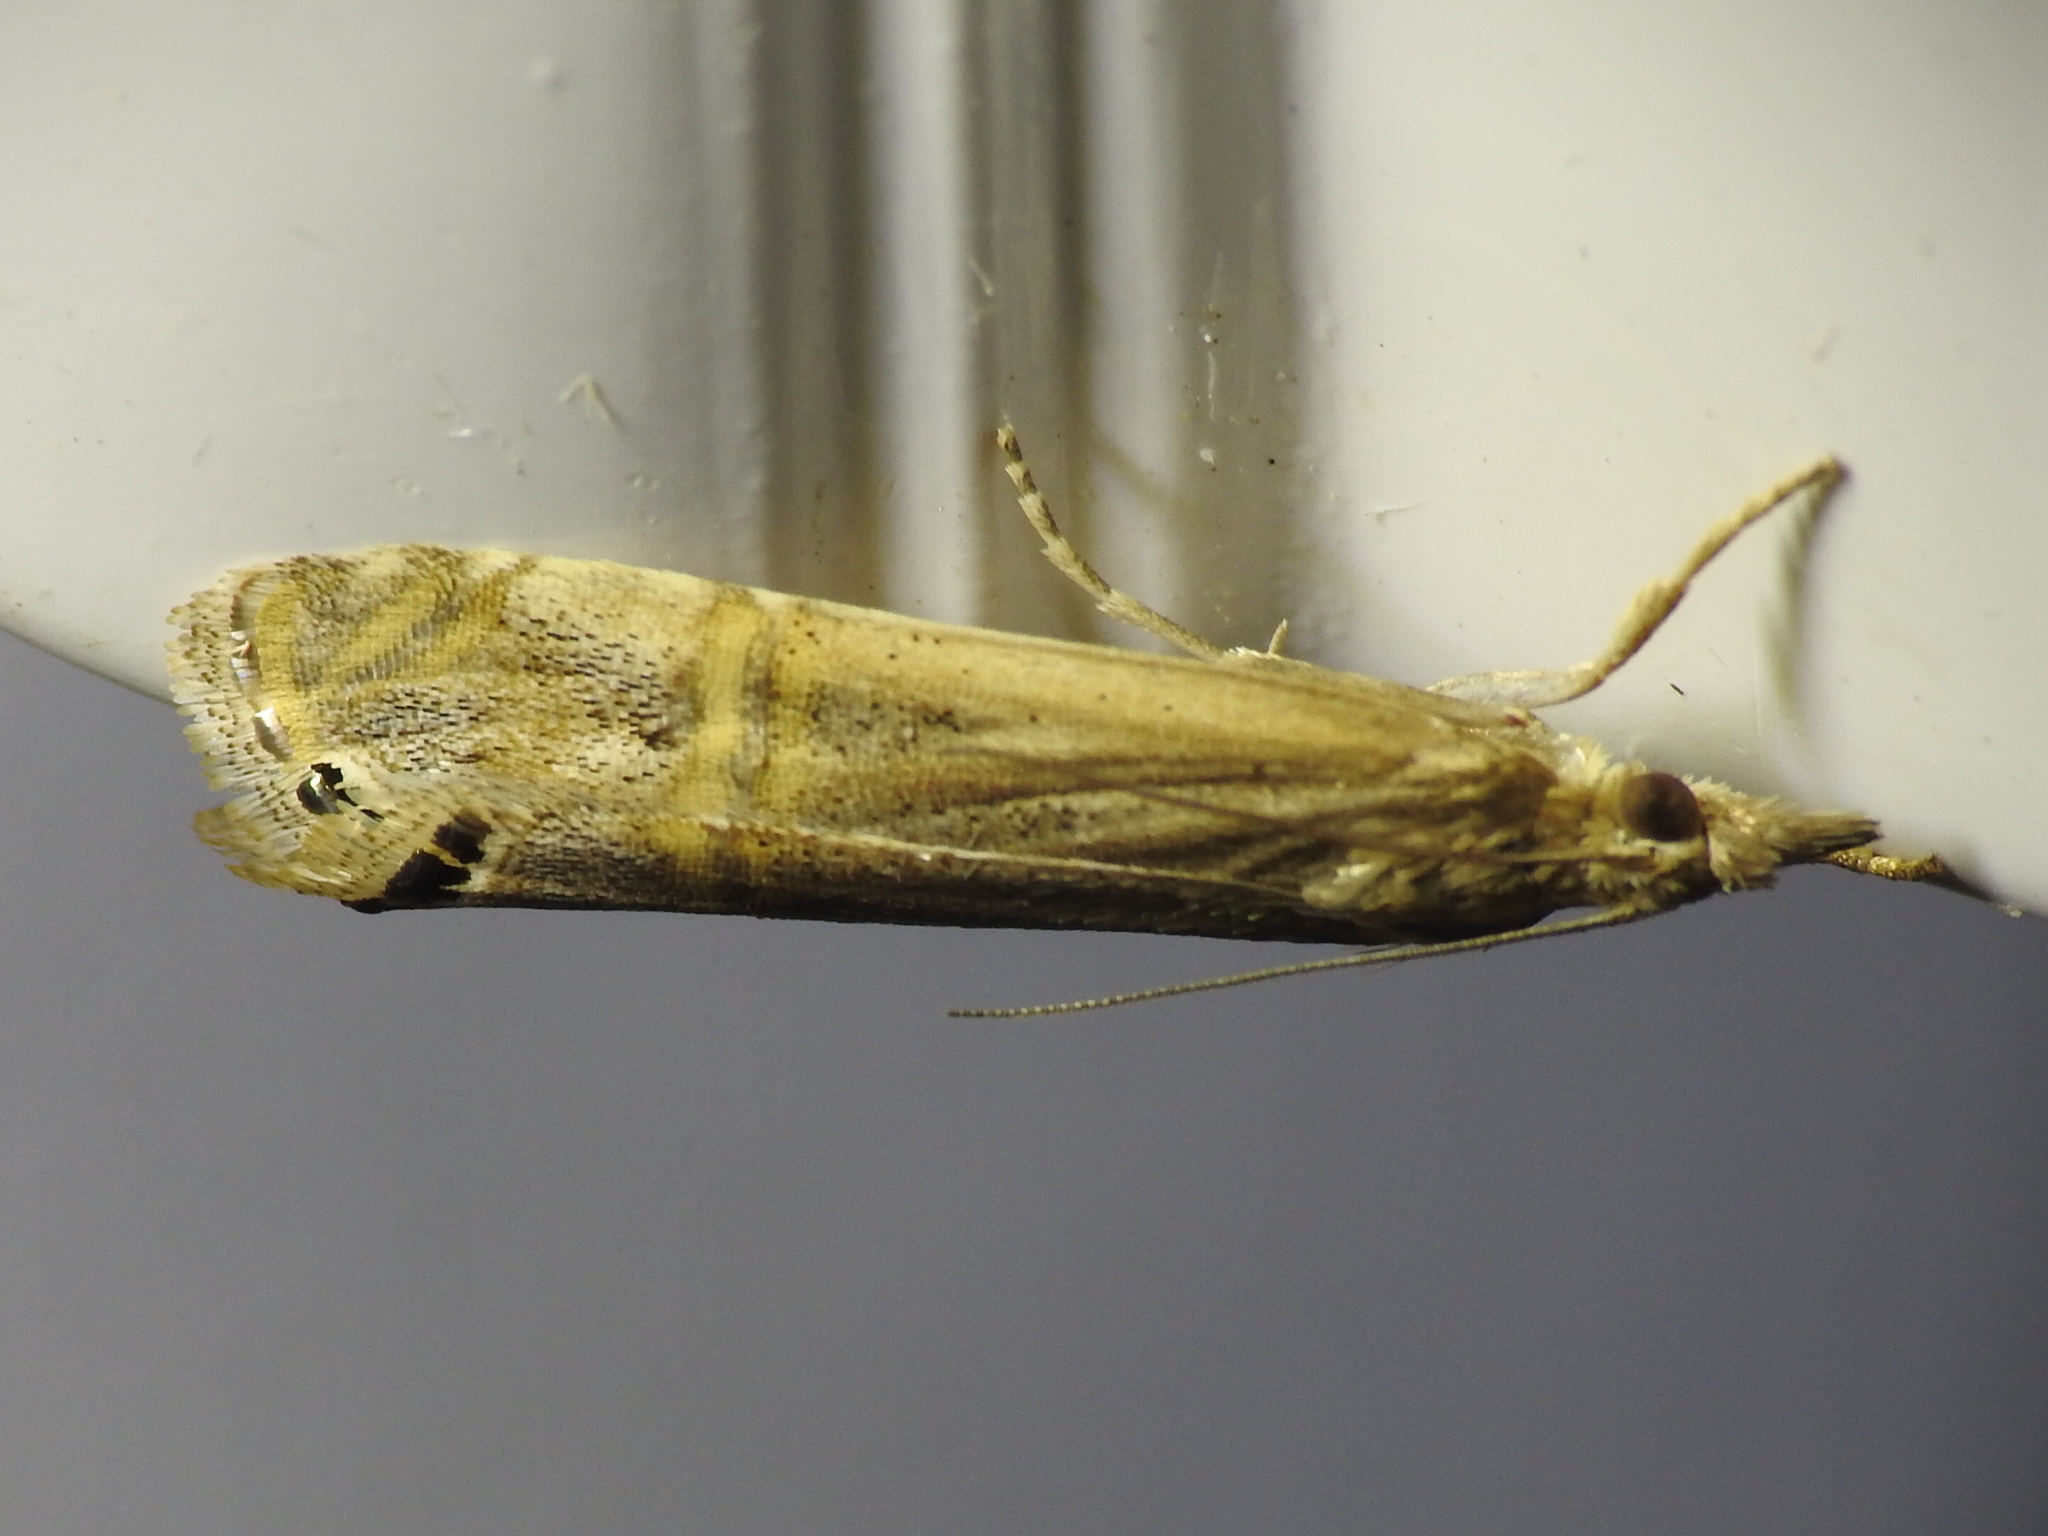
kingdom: Animalia
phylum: Arthropoda
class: Insecta
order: Lepidoptera
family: Crambidae
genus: Euchromius
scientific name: Euchromius ocellea
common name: Necklace veneer moth
